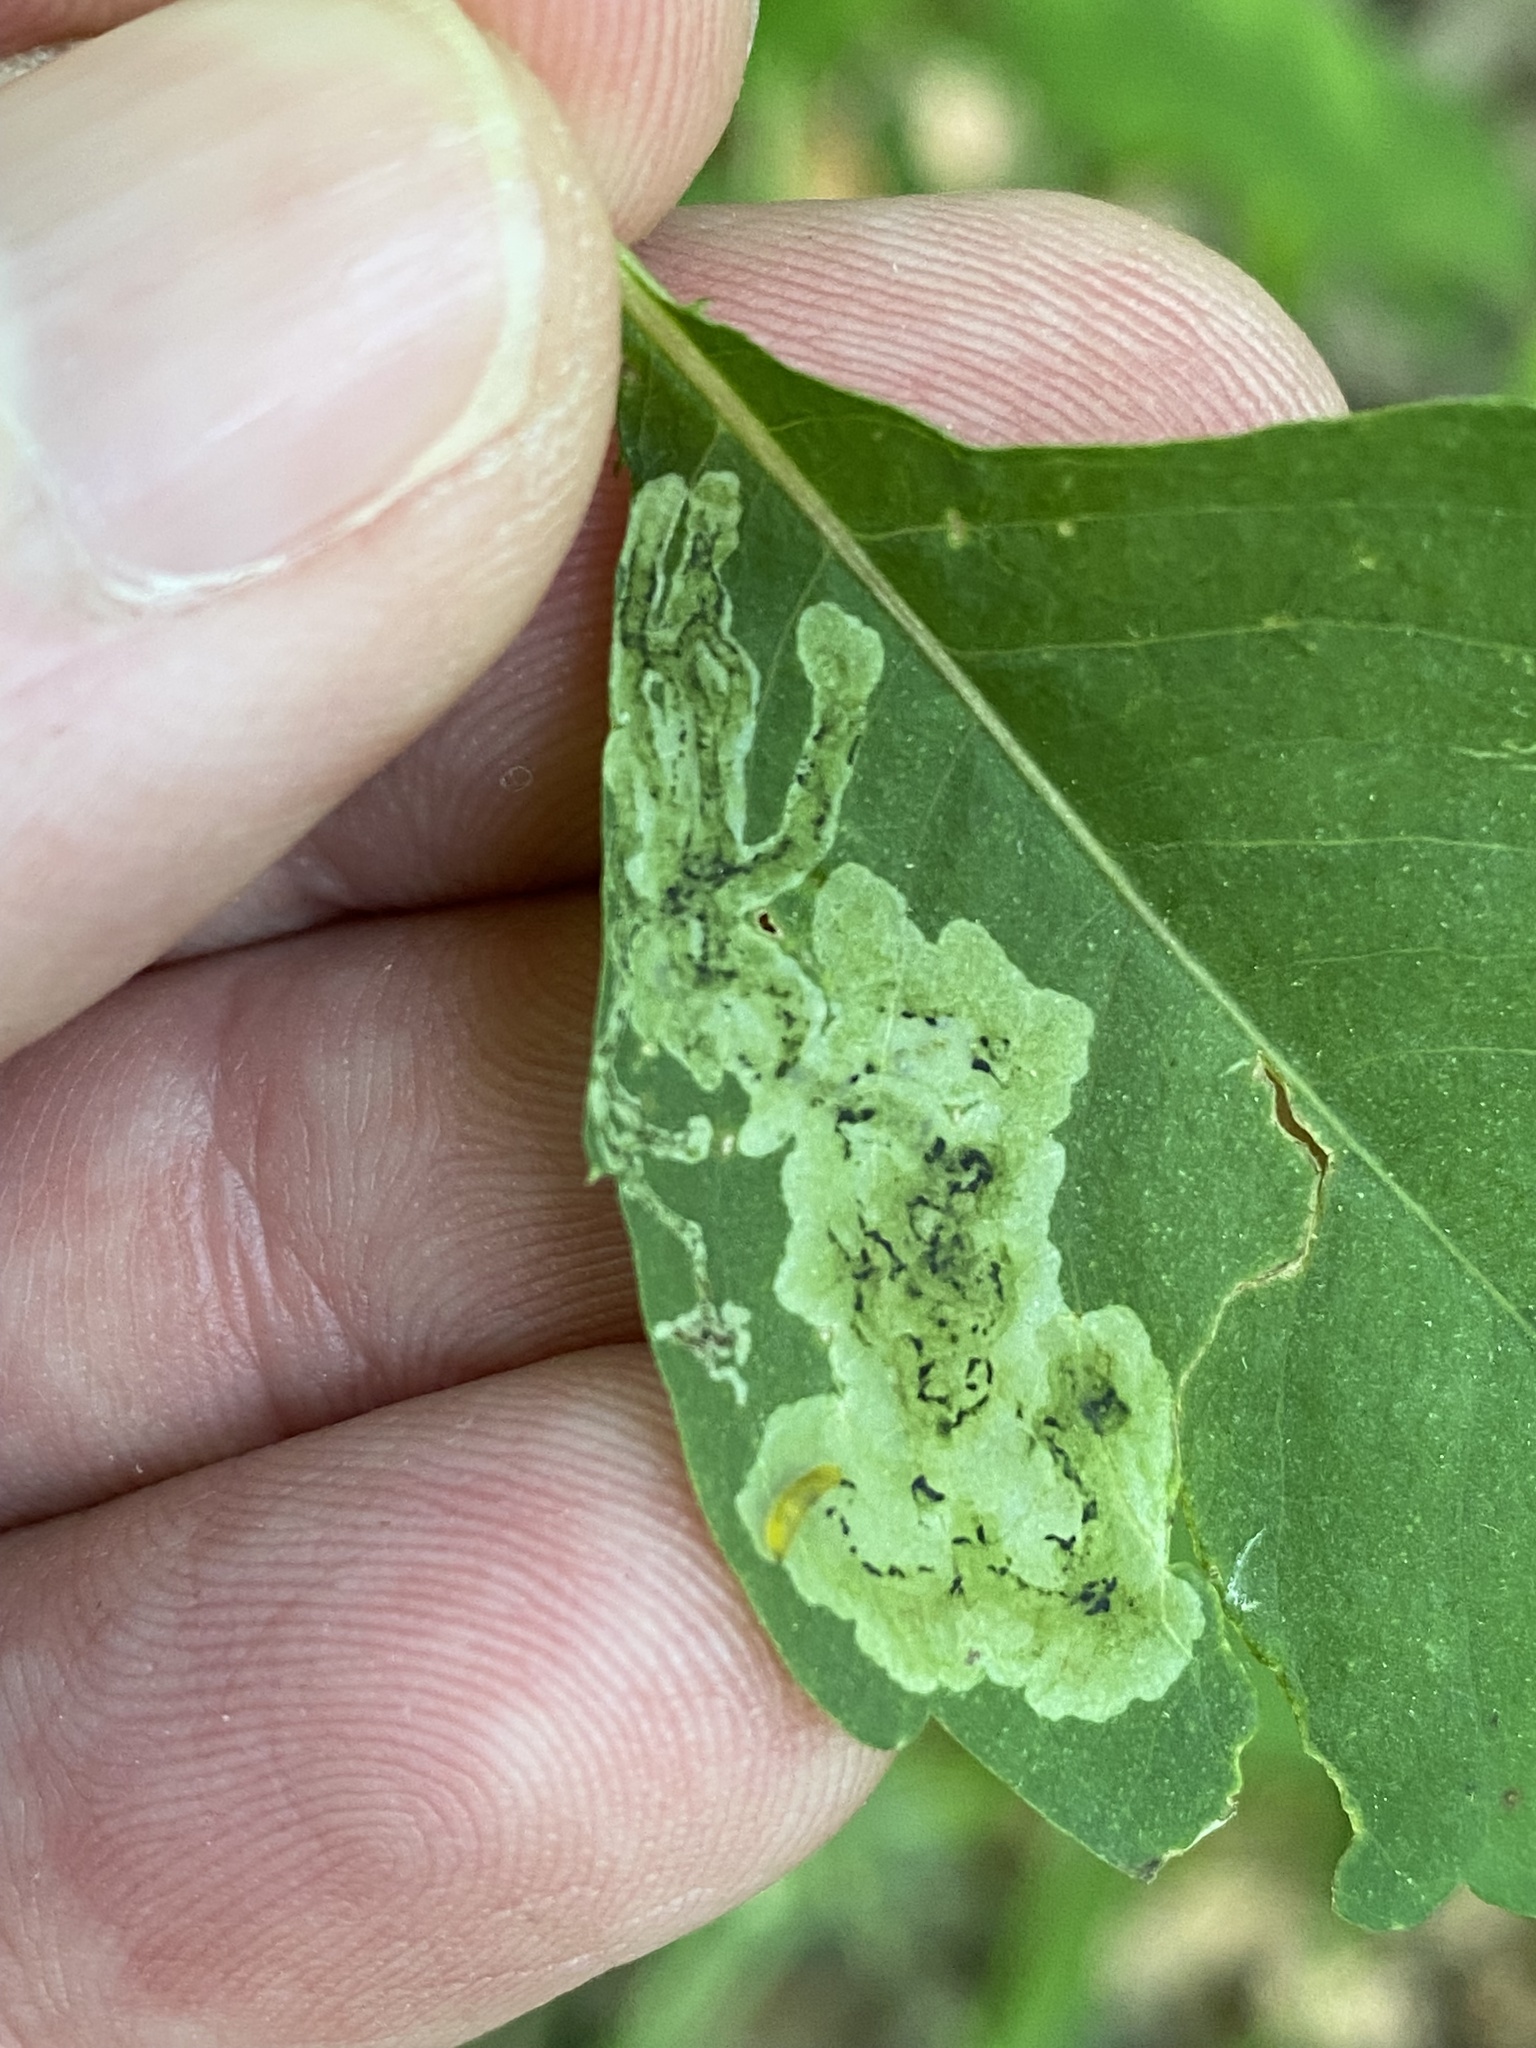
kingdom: Animalia
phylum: Arthropoda
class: Insecta
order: Diptera
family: Agromyzidae
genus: Phytoliriomyza
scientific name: Phytoliriomyza melampyga
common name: Jewelweed leaf-miner fly
